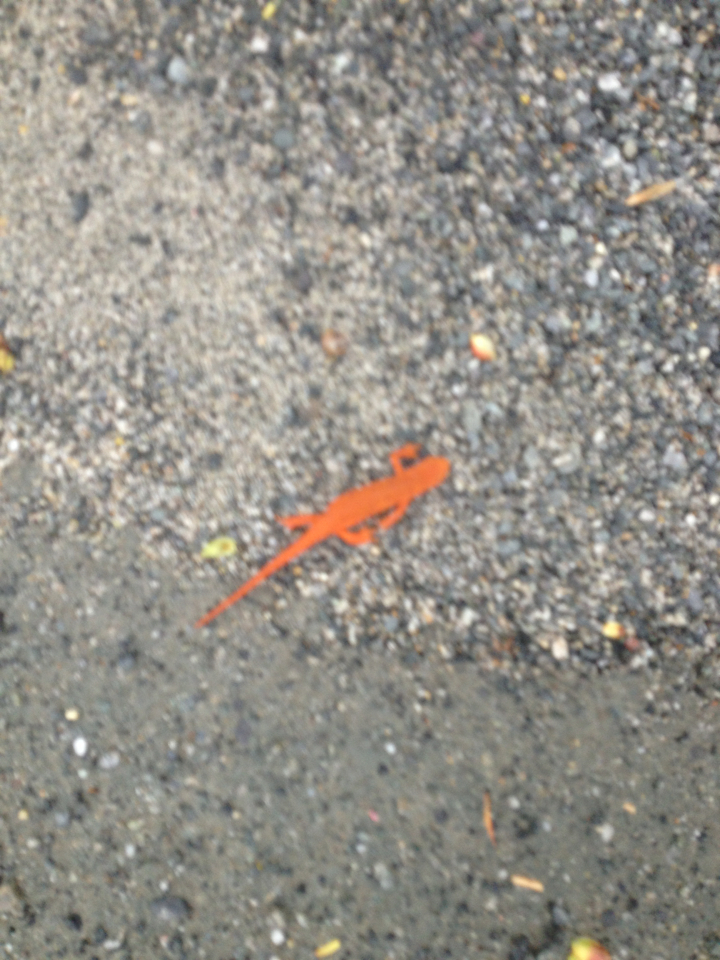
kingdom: Animalia
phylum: Chordata
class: Amphibia
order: Caudata
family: Salamandridae
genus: Notophthalmus
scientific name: Notophthalmus viridescens
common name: Eastern newt
